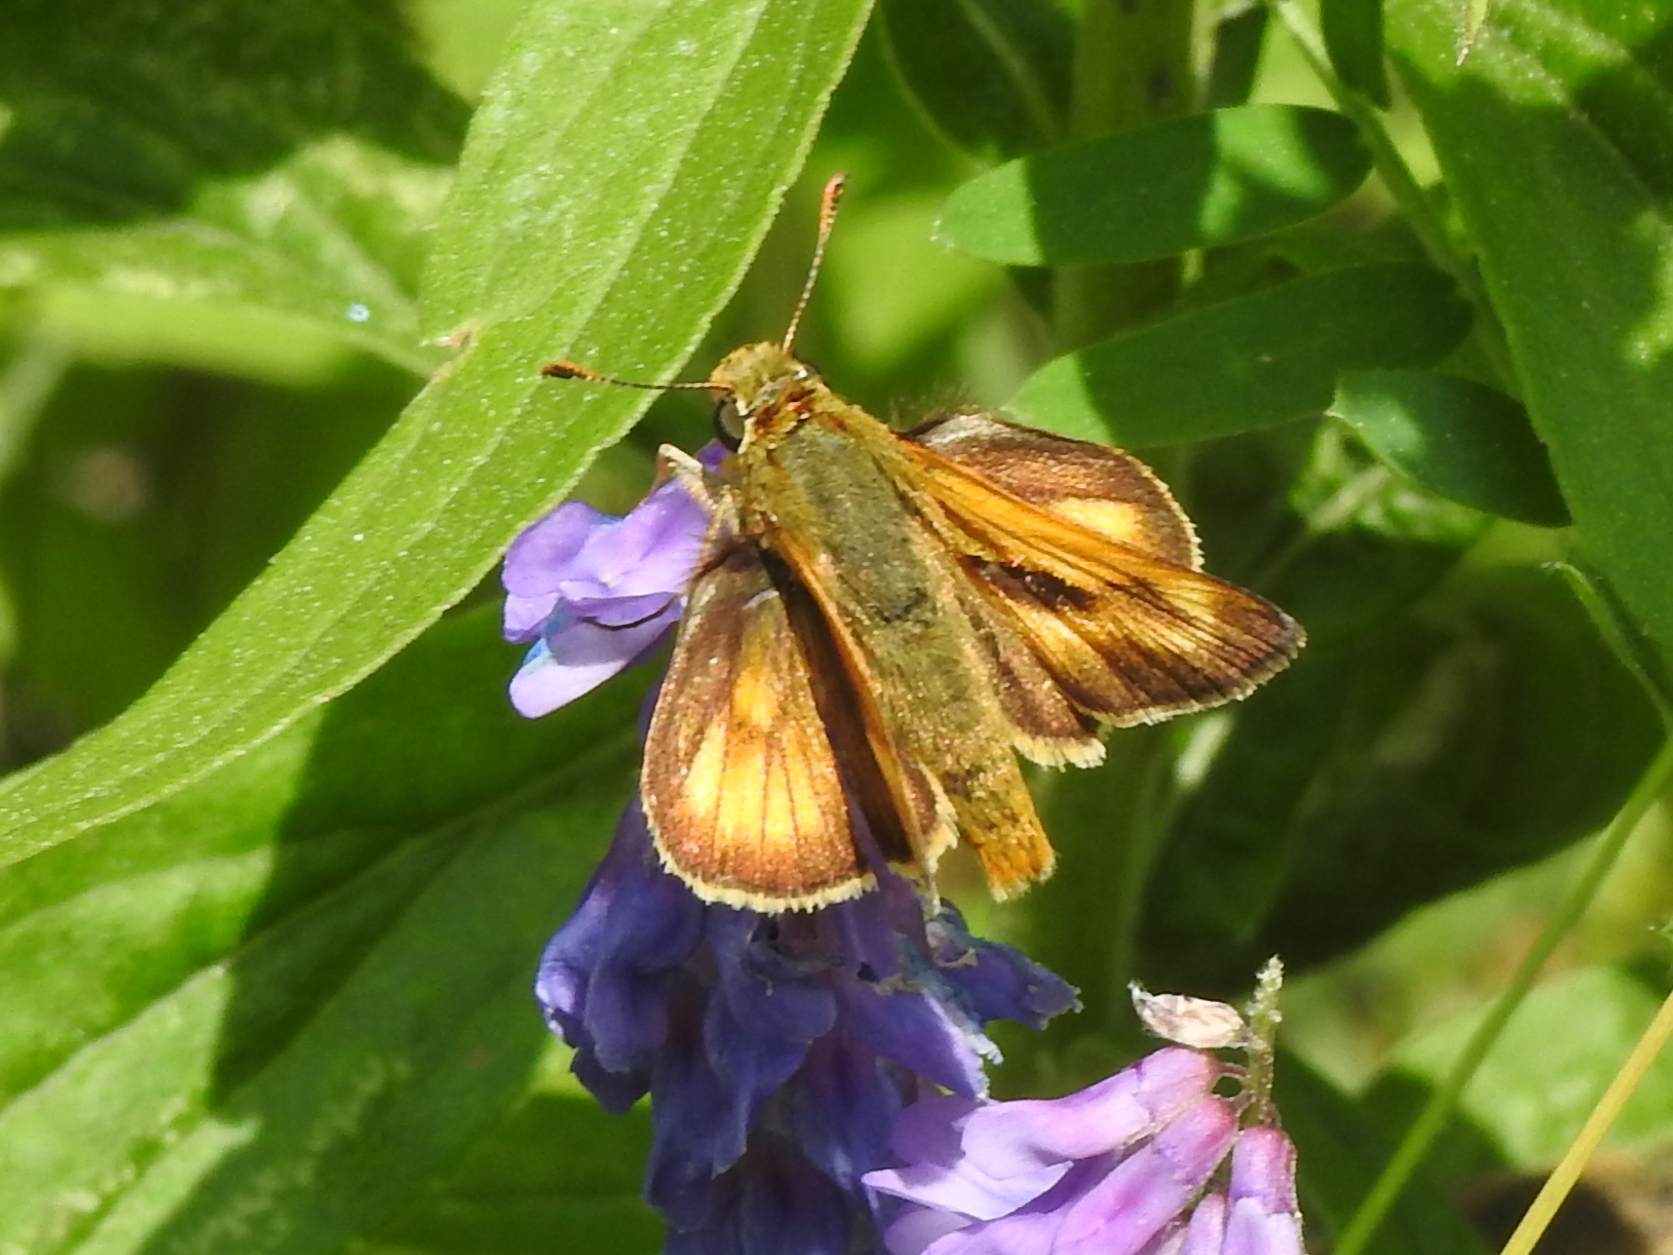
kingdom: Animalia
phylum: Arthropoda
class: Insecta
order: Lepidoptera
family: Hesperiidae
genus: Polites
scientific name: Polites mystic
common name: Long dash
